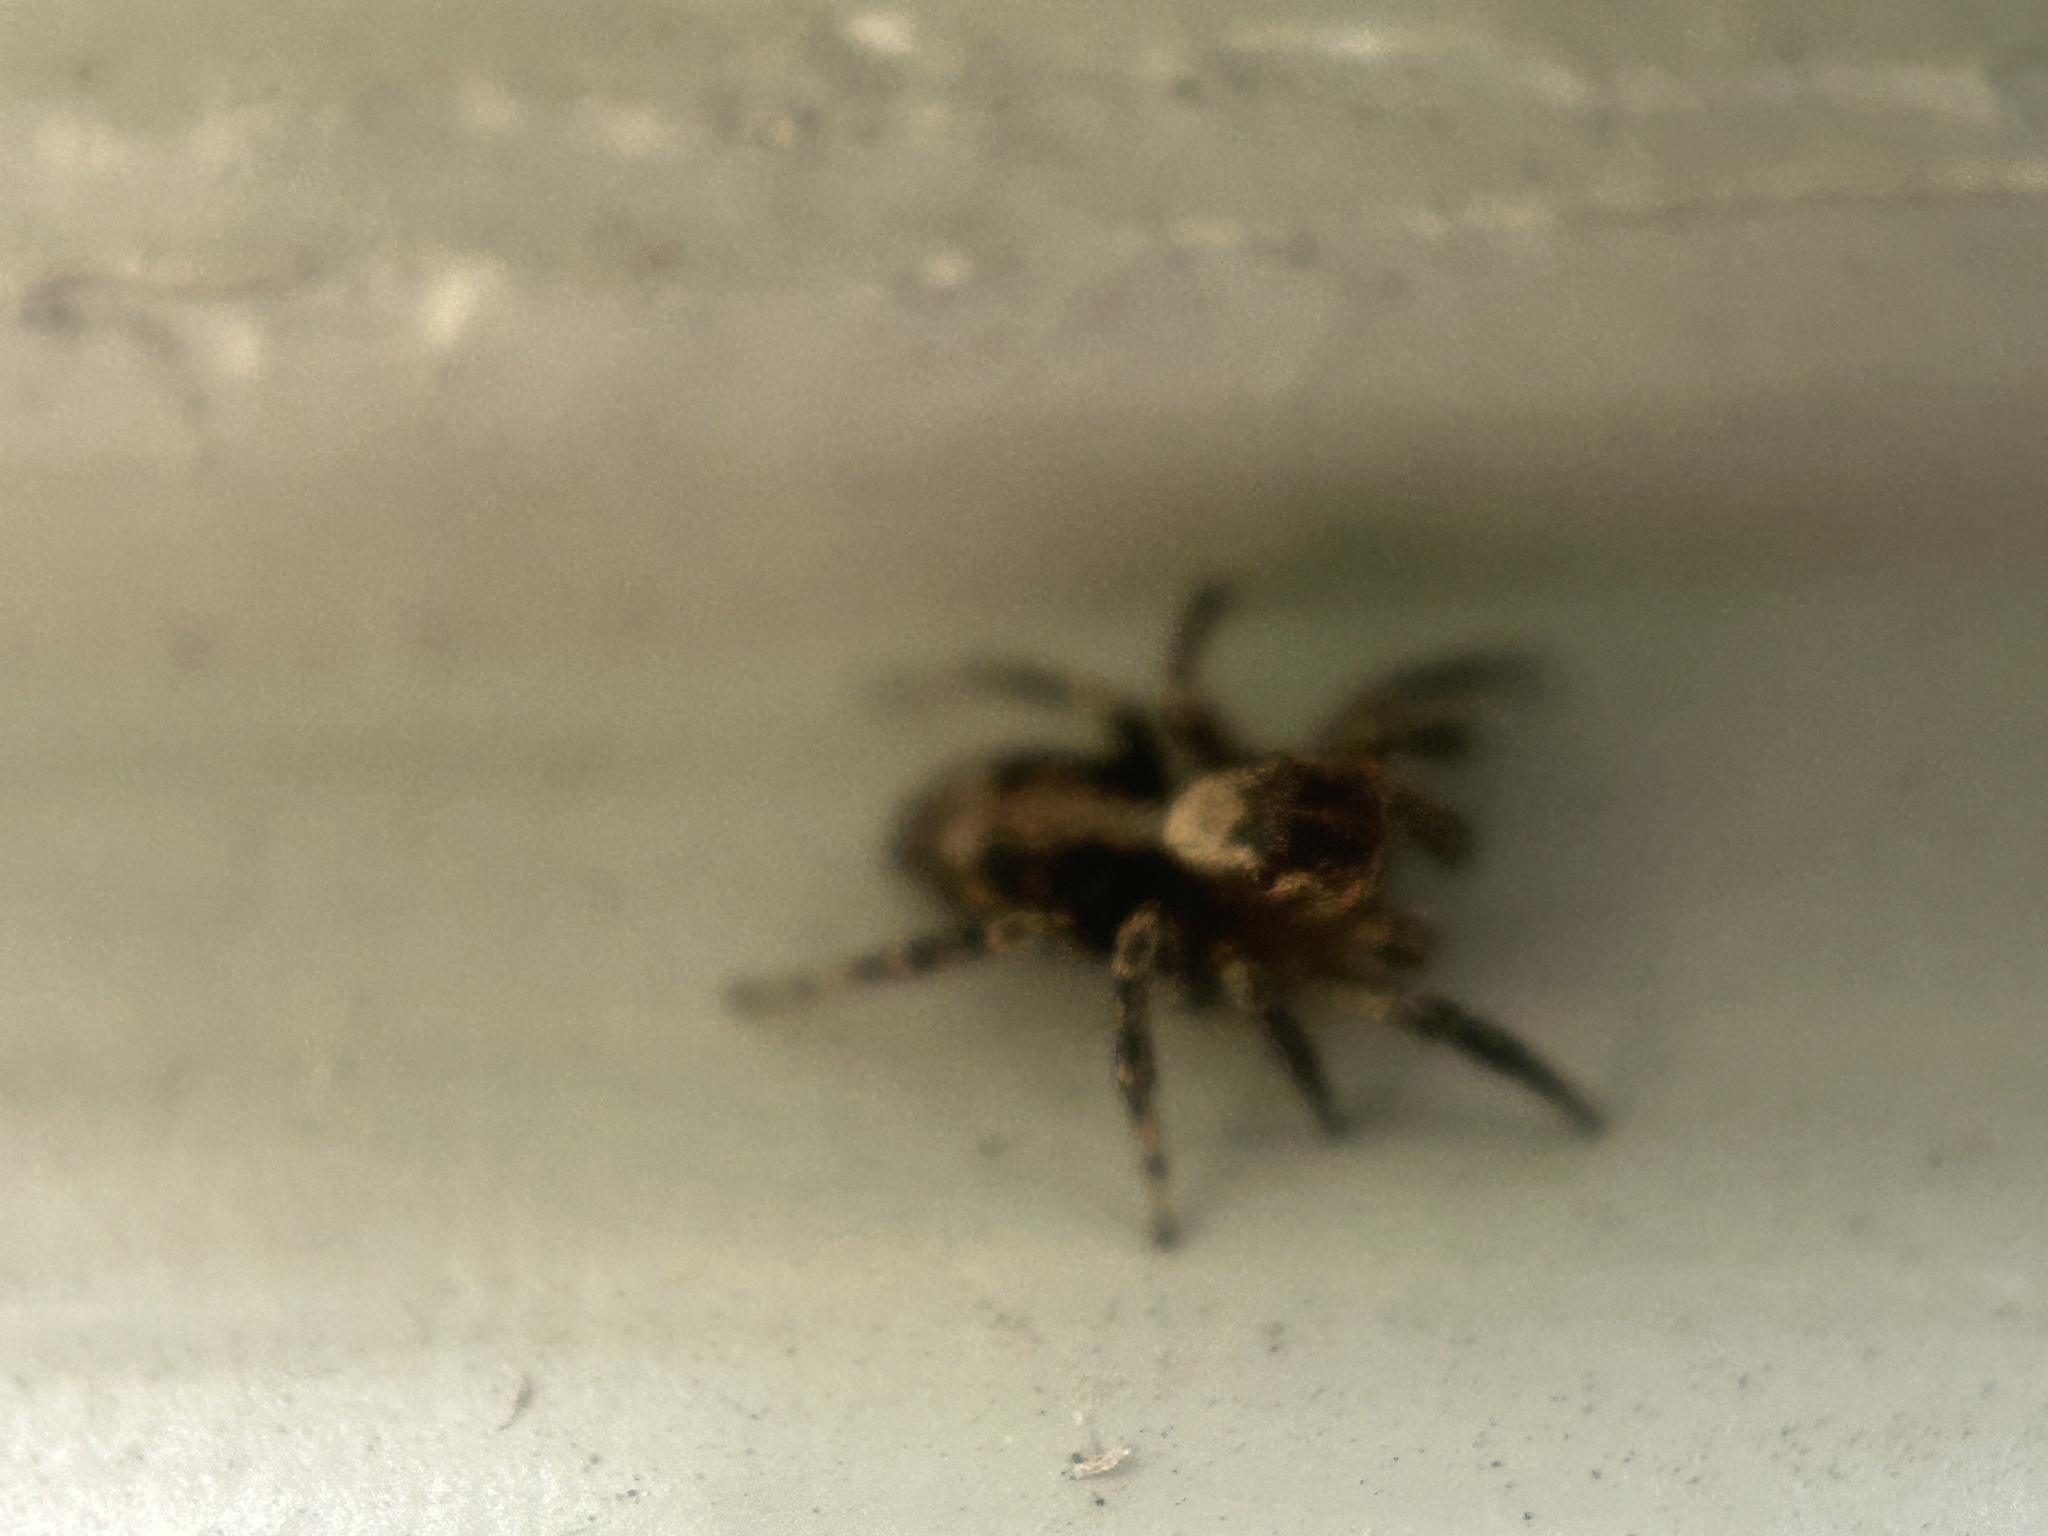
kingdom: Animalia
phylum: Arthropoda
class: Arachnida
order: Araneae
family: Salticidae
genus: Naphrys
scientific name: Naphrys pulex
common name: Flea jumping spider
